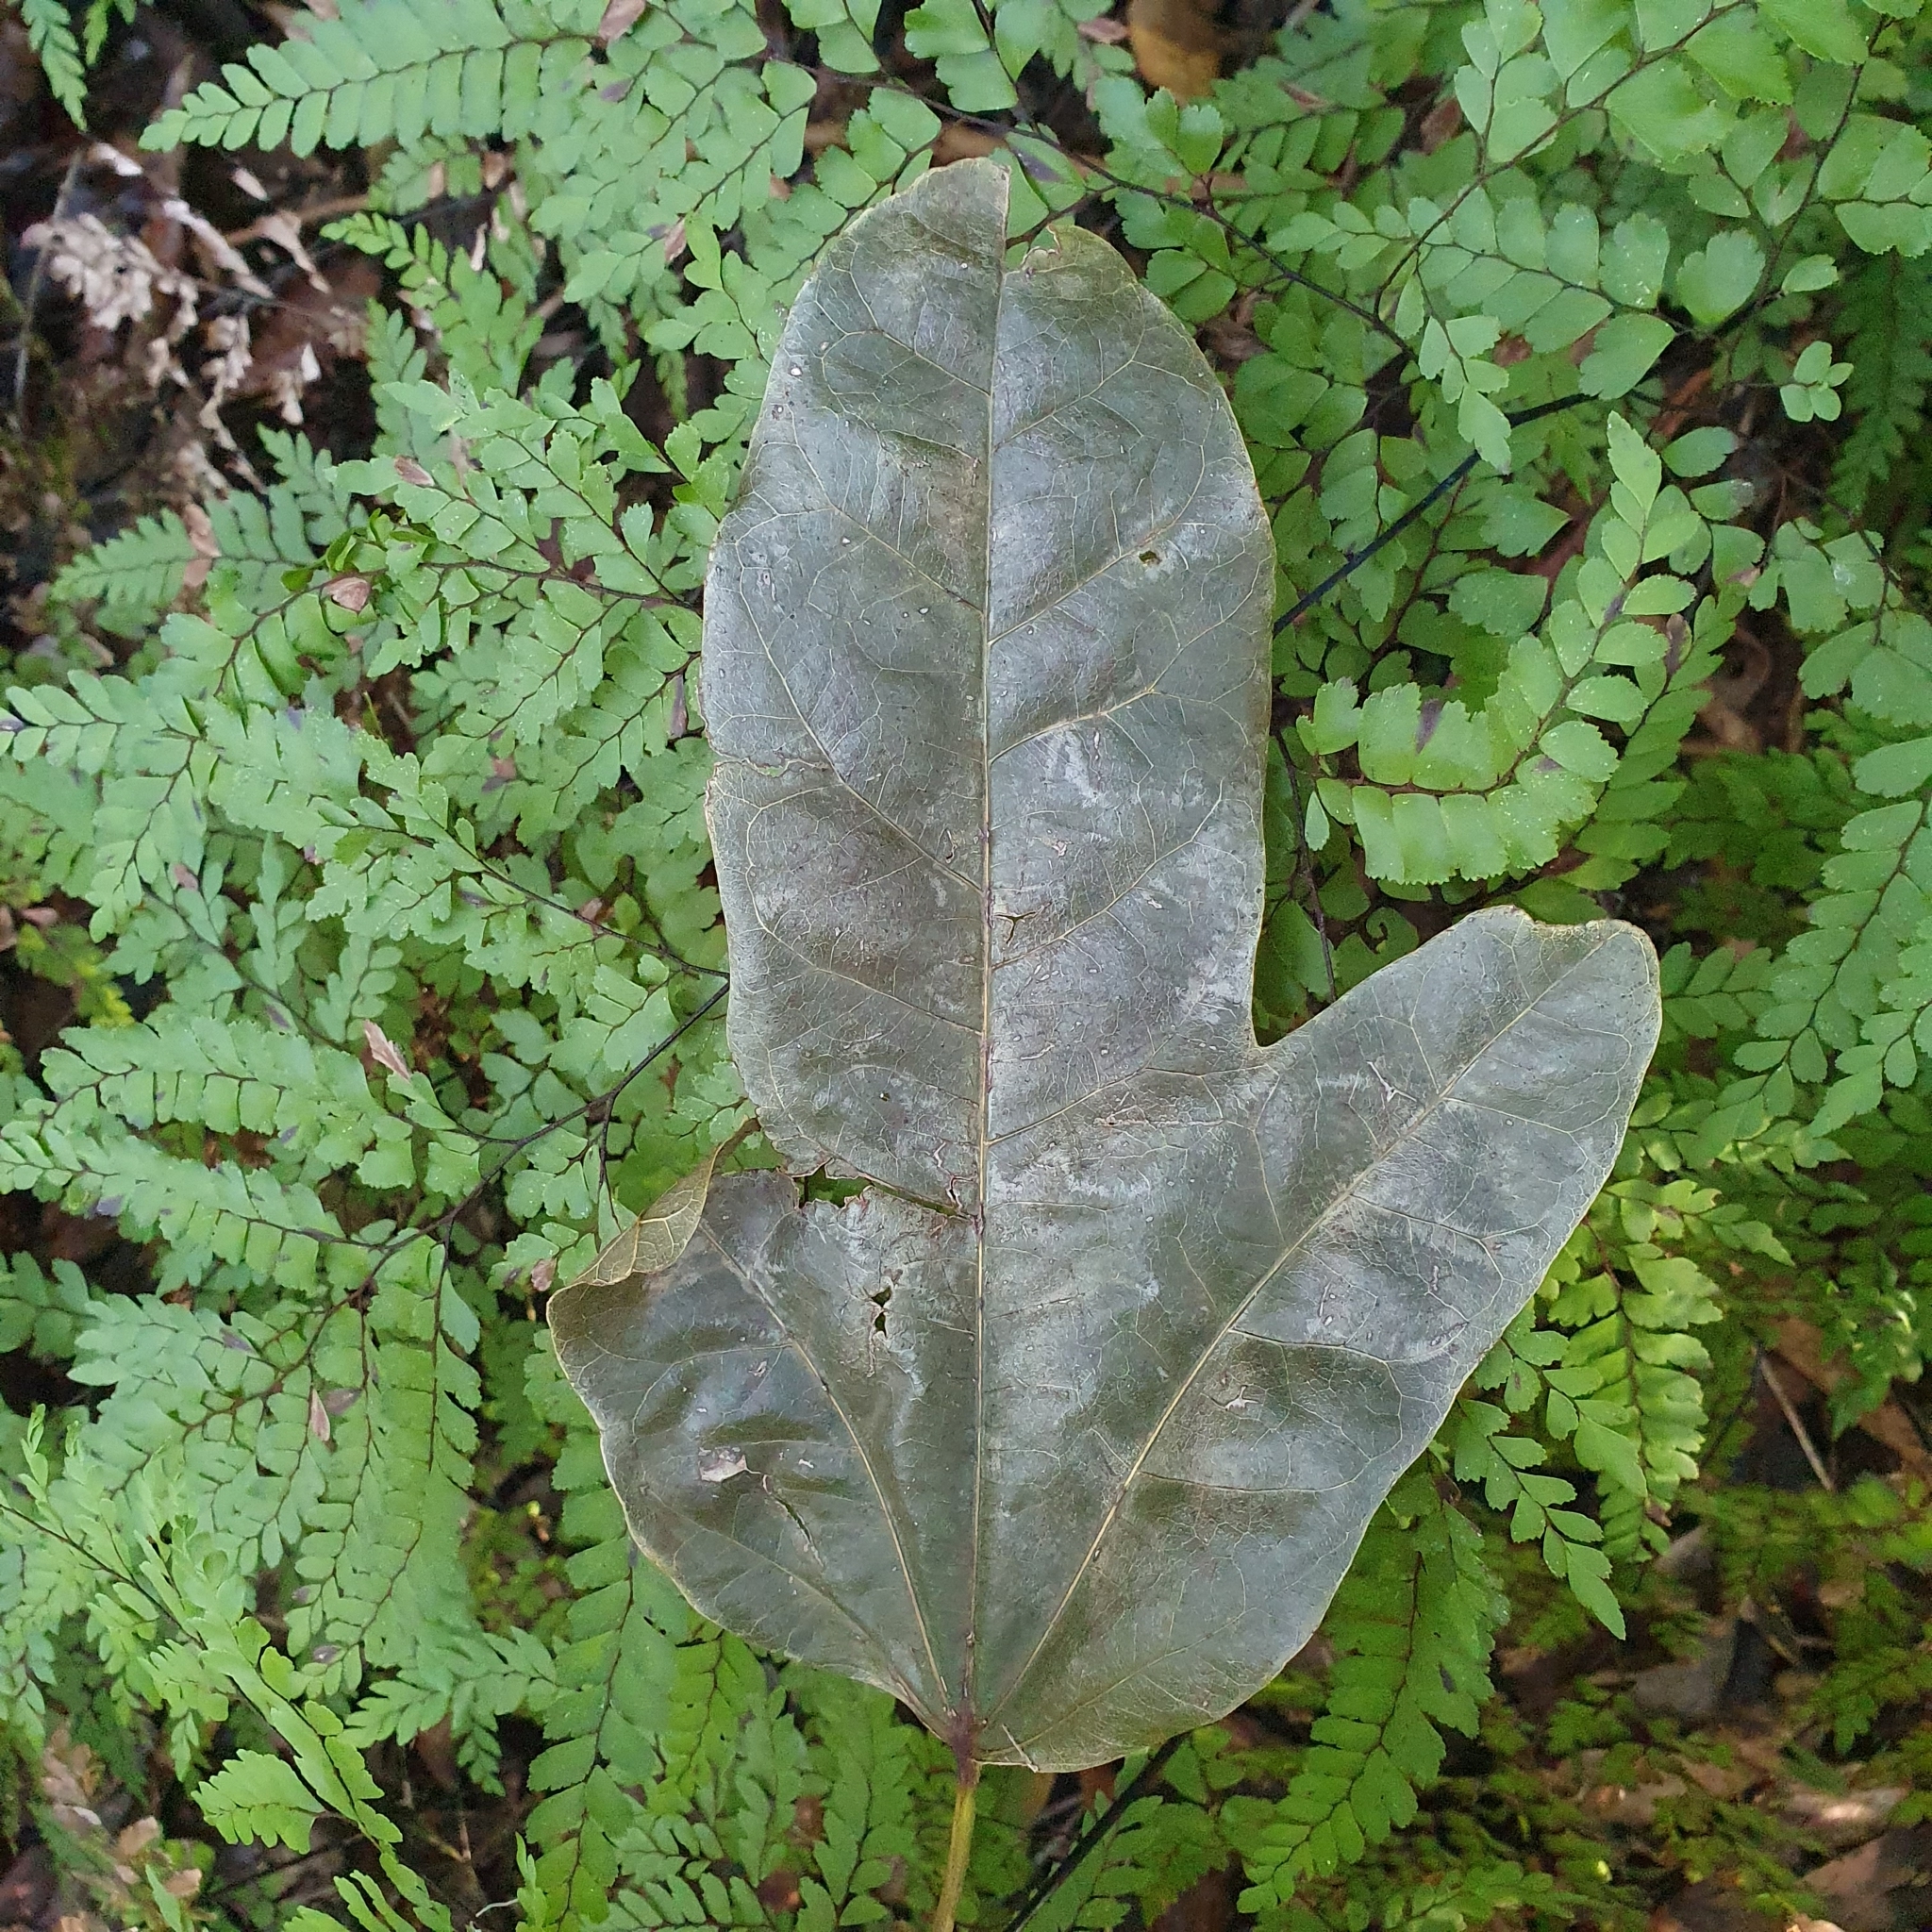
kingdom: Plantae
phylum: Tracheophyta
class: Magnoliopsida
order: Malvales
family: Malvaceae
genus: Brachychiton
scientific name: Brachychiton acerifolius
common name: Illawarra flame tree
